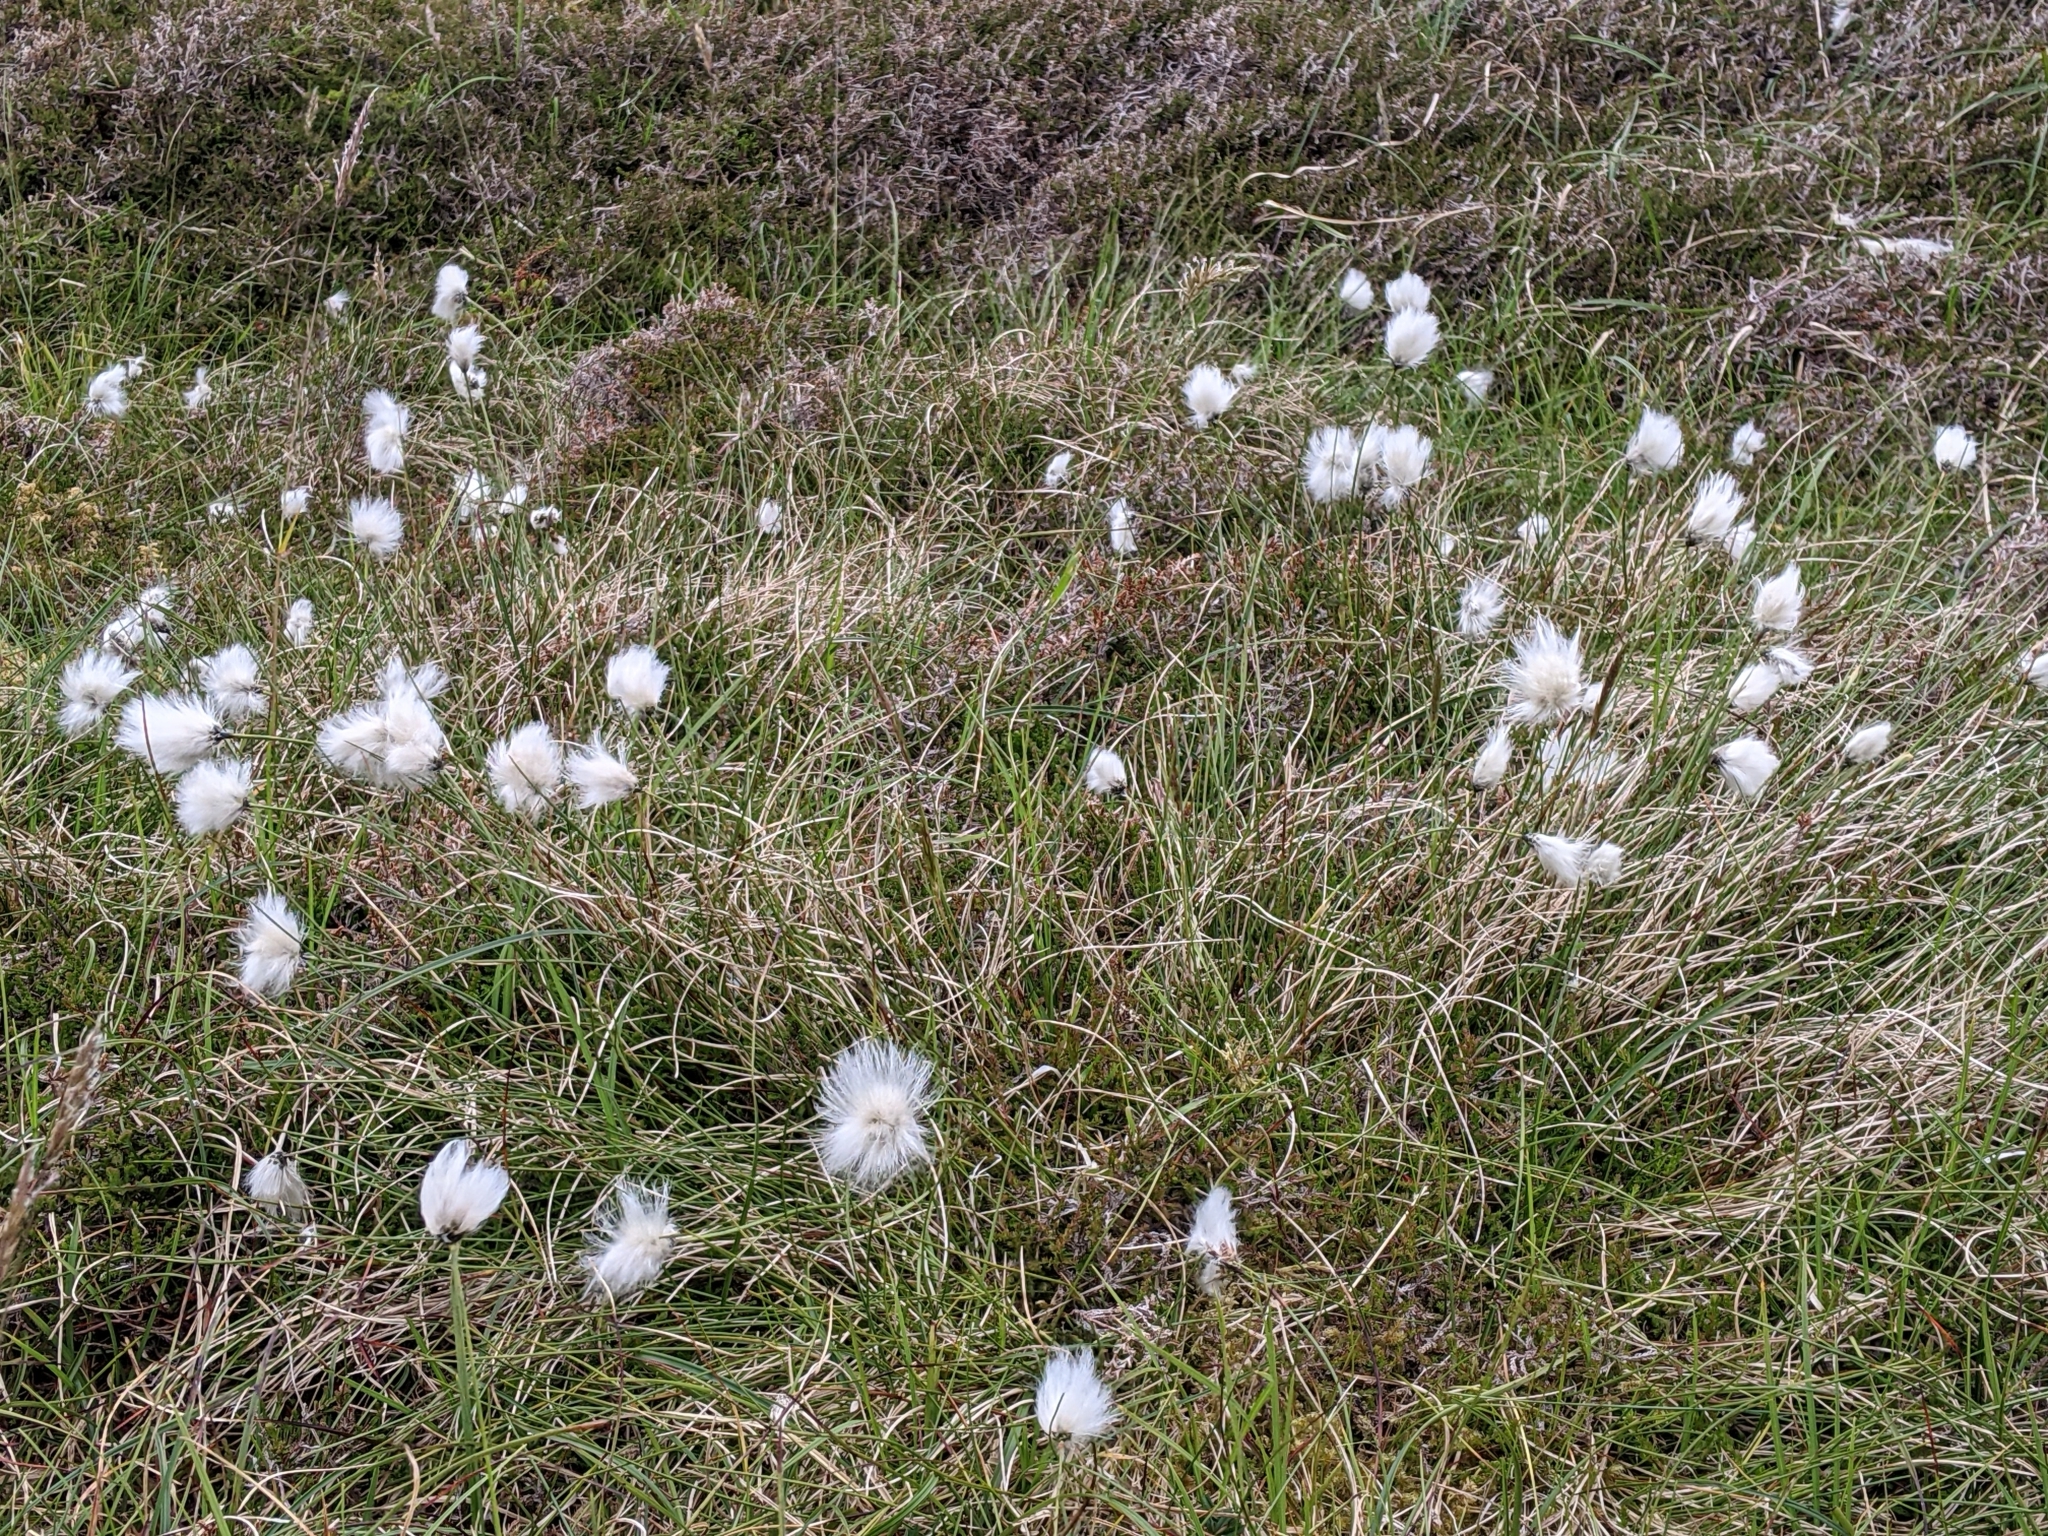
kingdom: Plantae
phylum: Tracheophyta
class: Liliopsida
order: Poales
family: Cyperaceae
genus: Eriophorum
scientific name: Eriophorum vaginatum
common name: Hare's-tail cottongrass
